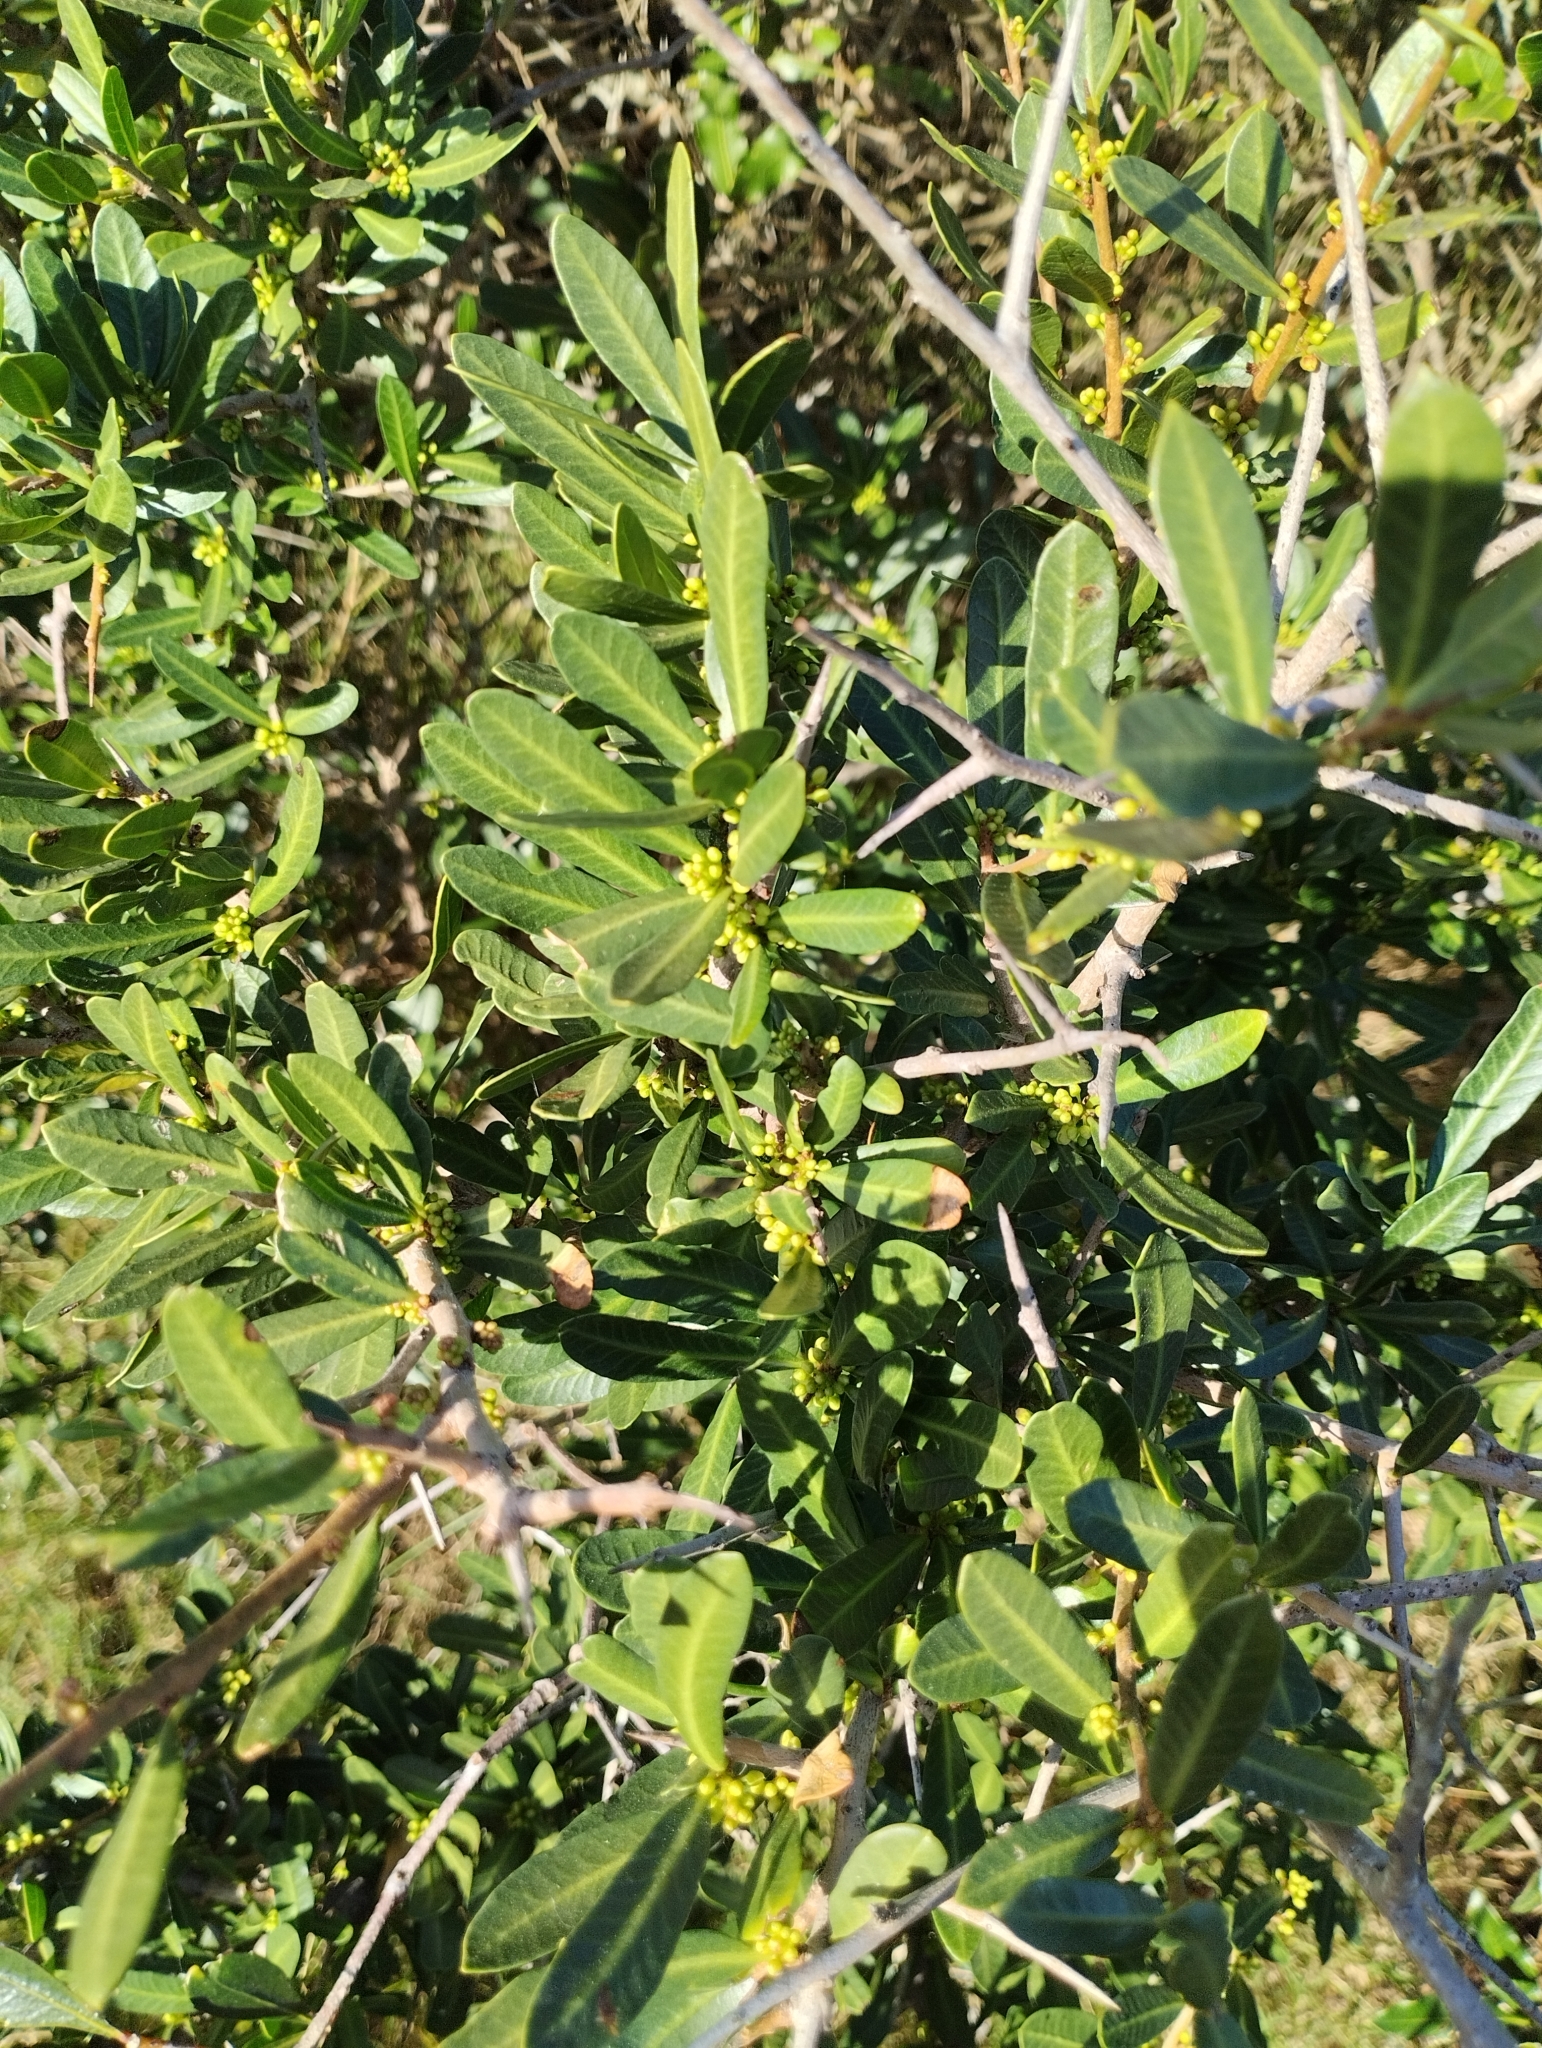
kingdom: Plantae
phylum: Tracheophyta
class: Magnoliopsida
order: Sapindales
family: Anacardiaceae
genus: Schinus
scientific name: Schinus longifolia
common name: Longleaf peppertree
